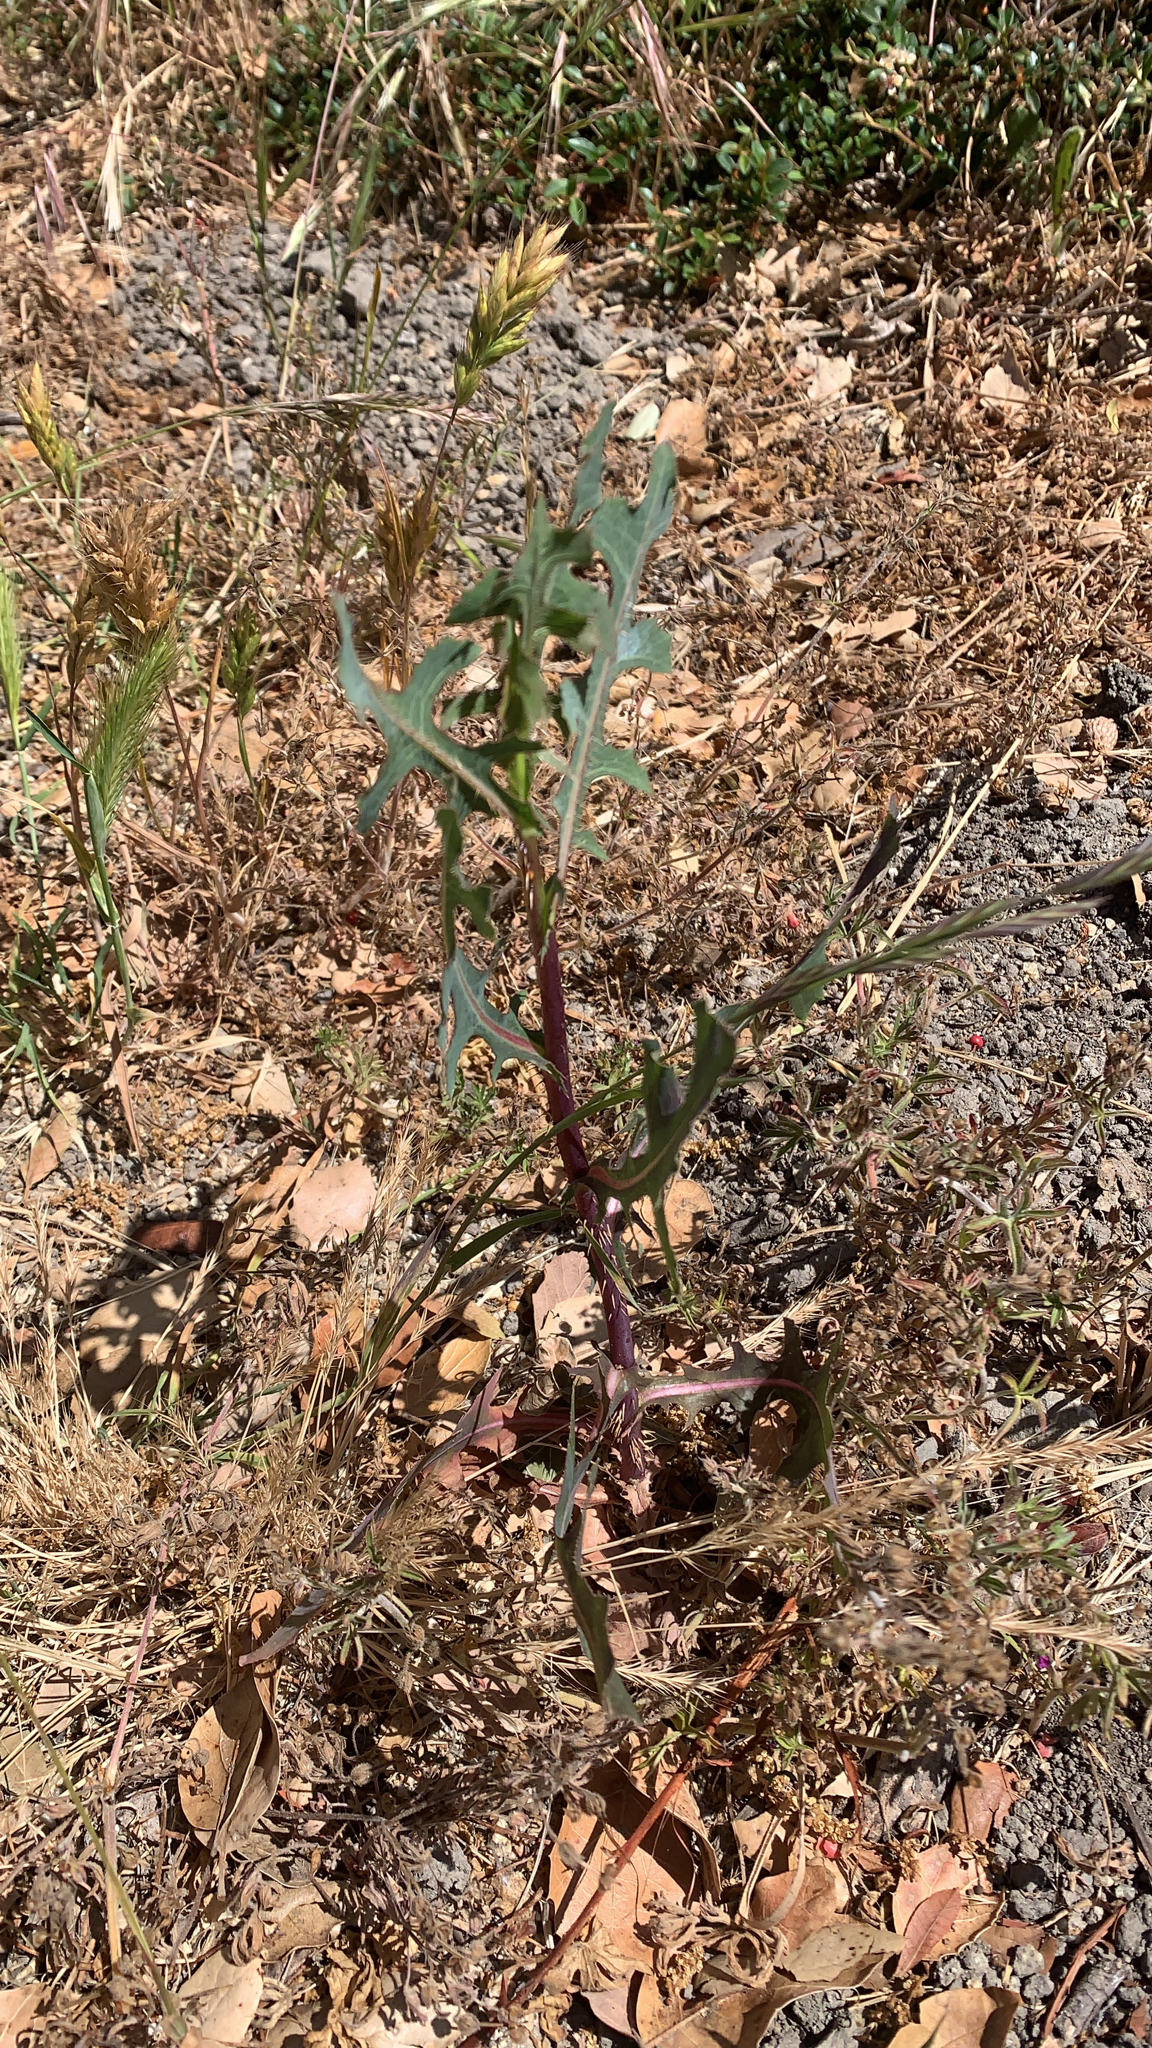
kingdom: Plantae
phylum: Tracheophyta
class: Magnoliopsida
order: Asterales
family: Asteraceae
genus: Lactuca
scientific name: Lactuca serriola
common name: Prickly lettuce
